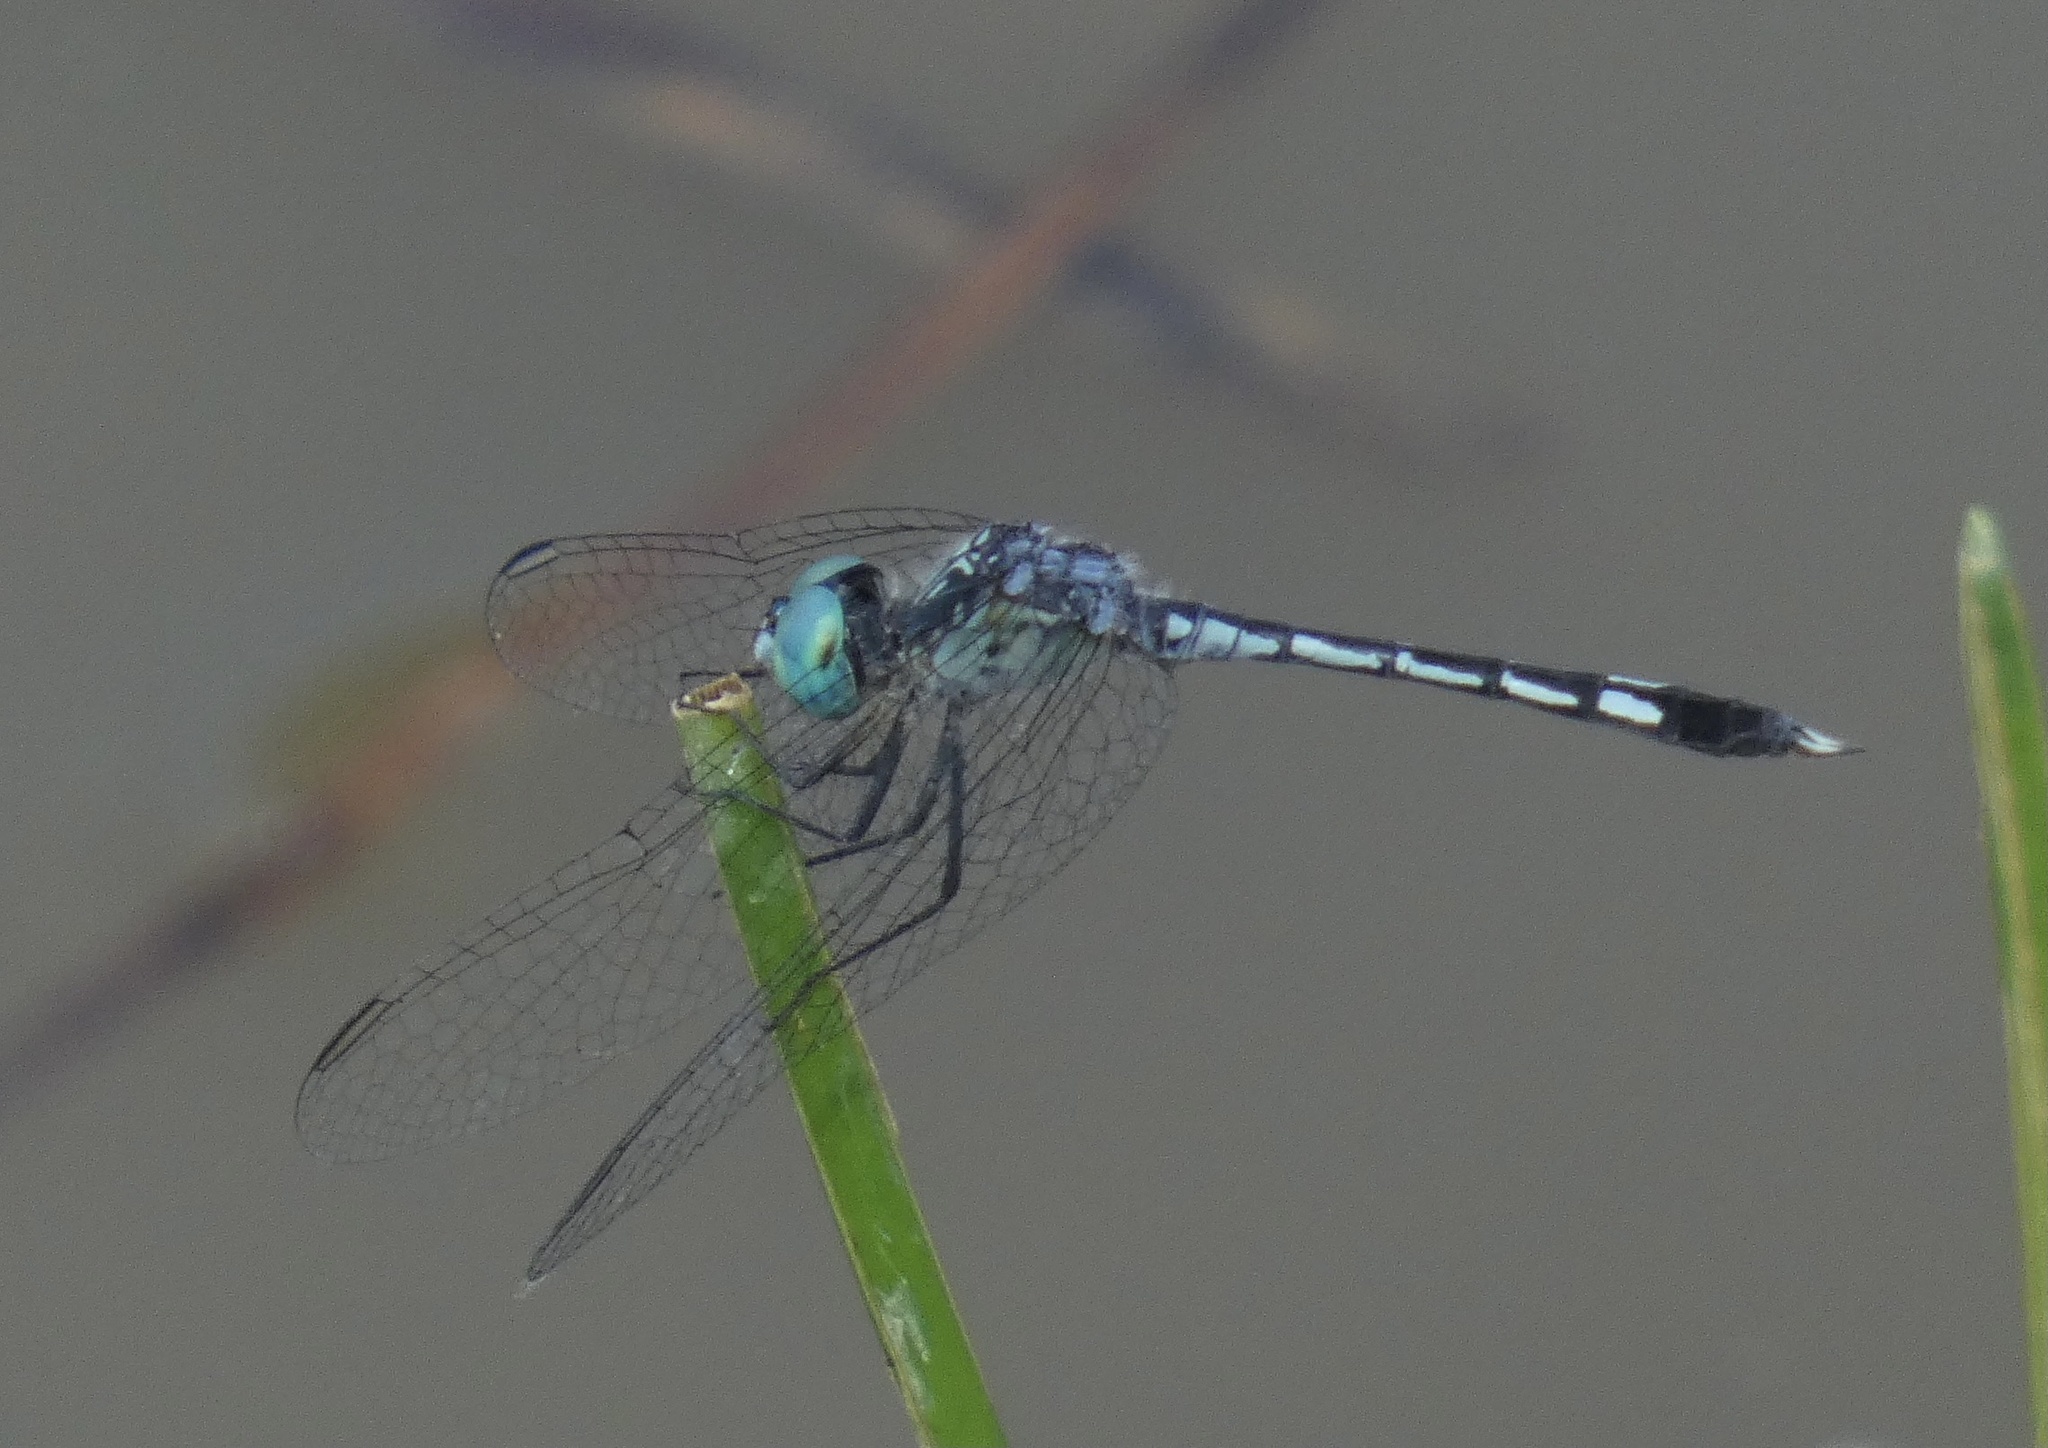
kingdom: Animalia
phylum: Arthropoda
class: Insecta
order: Odonata
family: Libellulidae
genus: Micrathyria
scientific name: Micrathyria spuria
